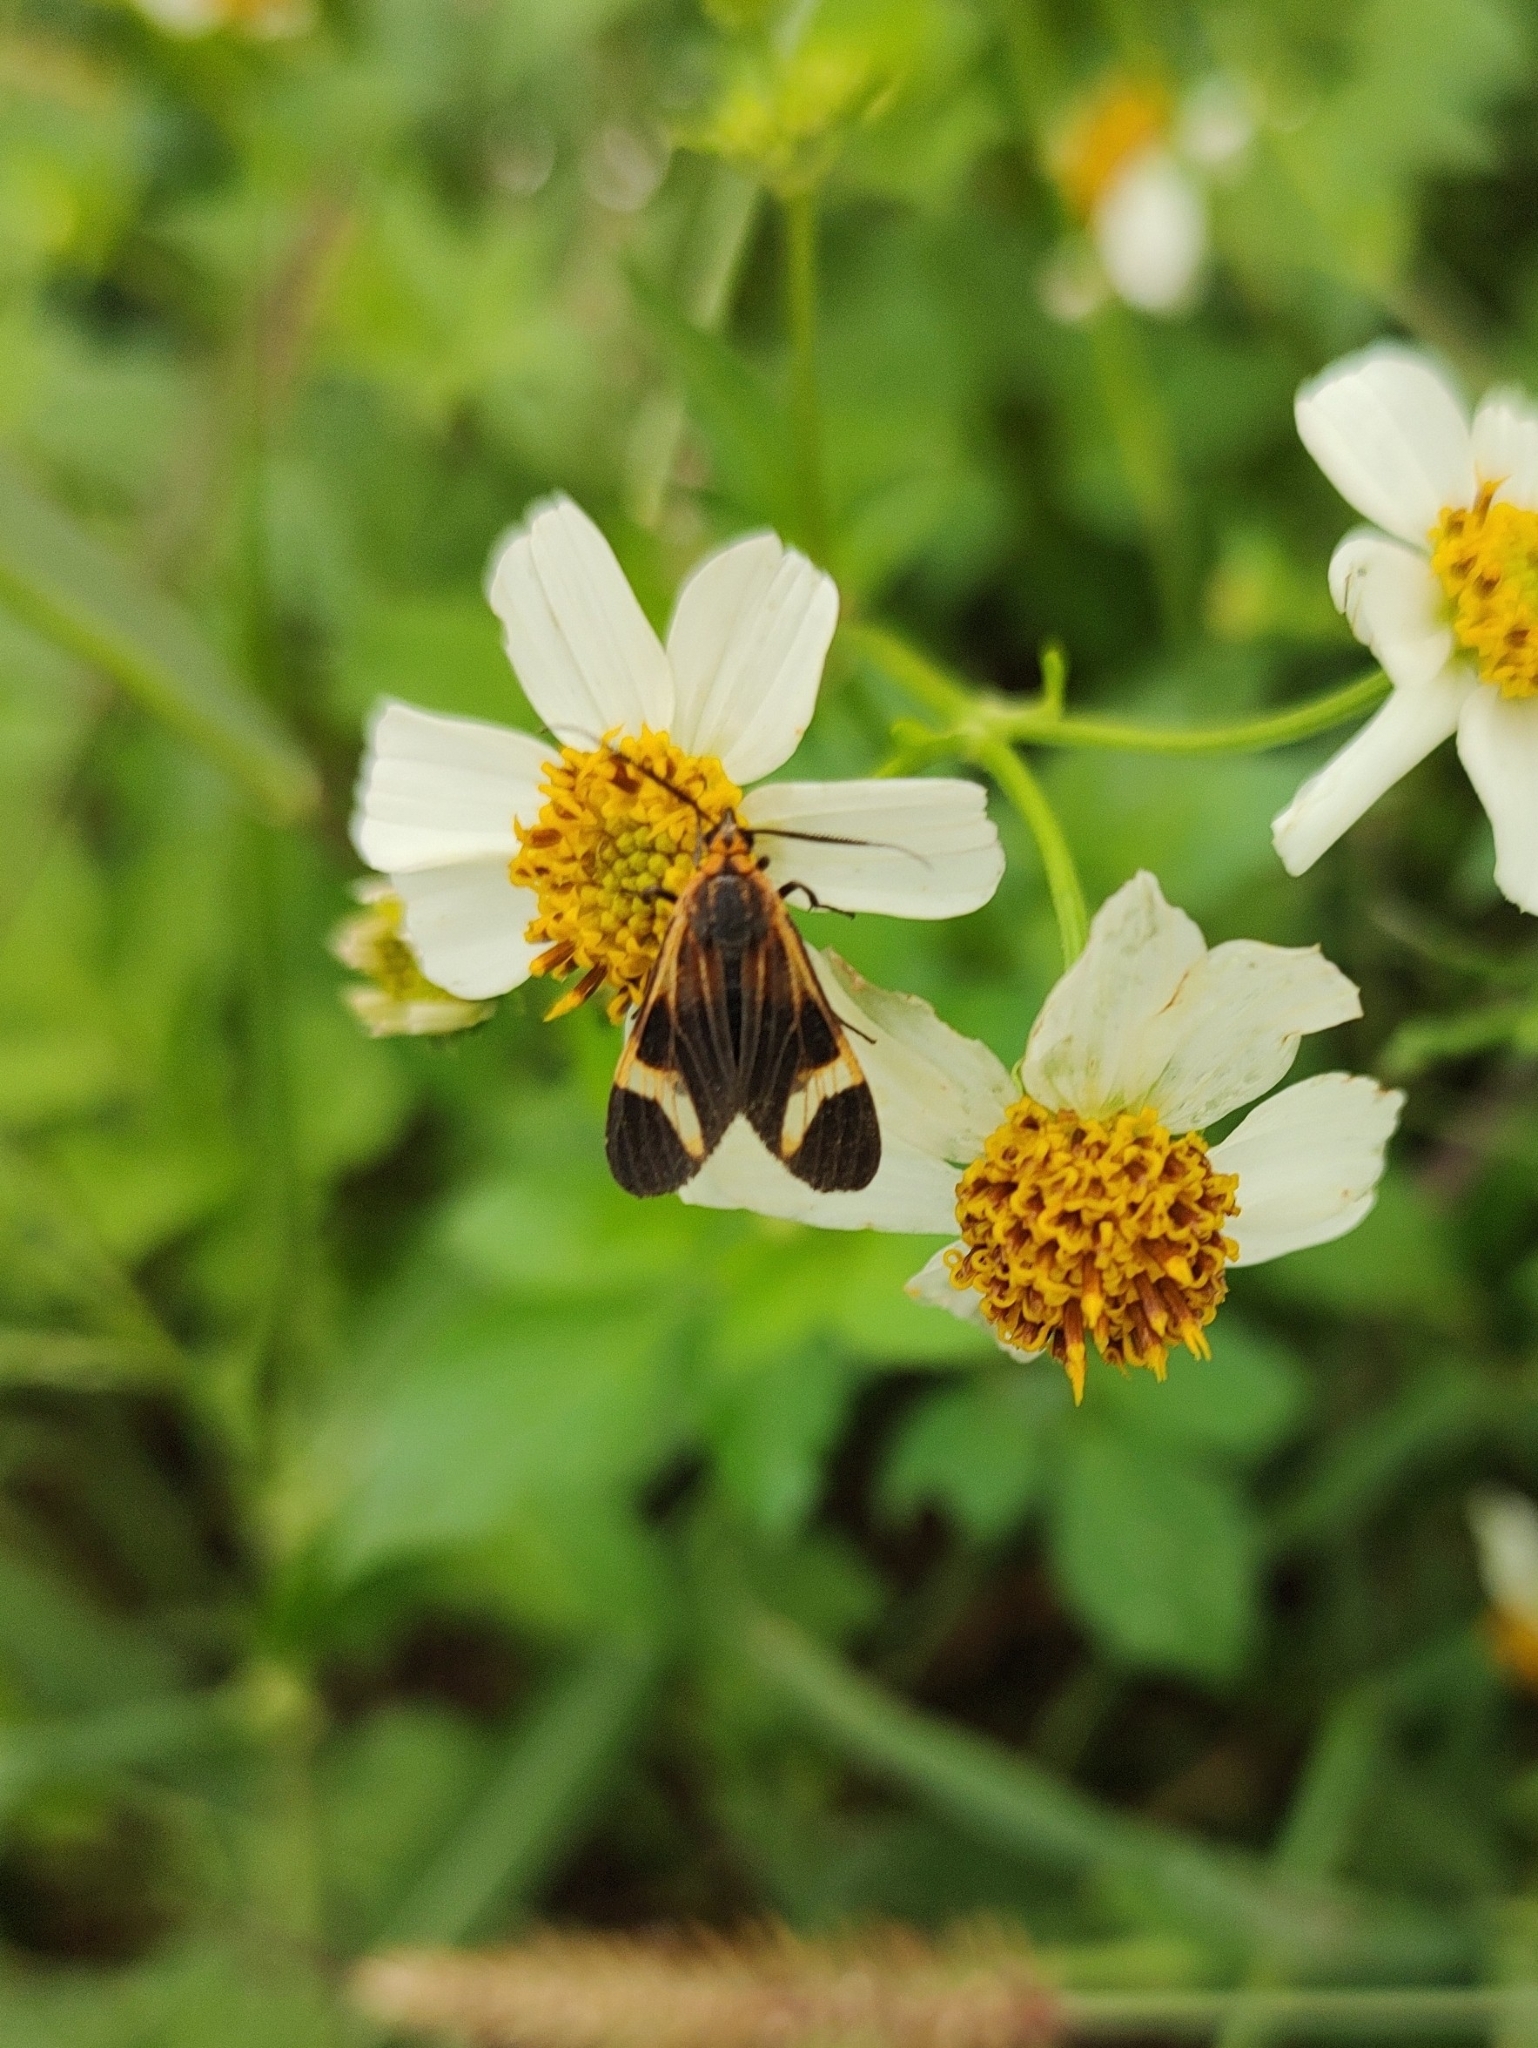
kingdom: Animalia
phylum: Arthropoda
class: Insecta
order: Lepidoptera
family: Erebidae
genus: Dycladia
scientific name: Dycladia lucetius
